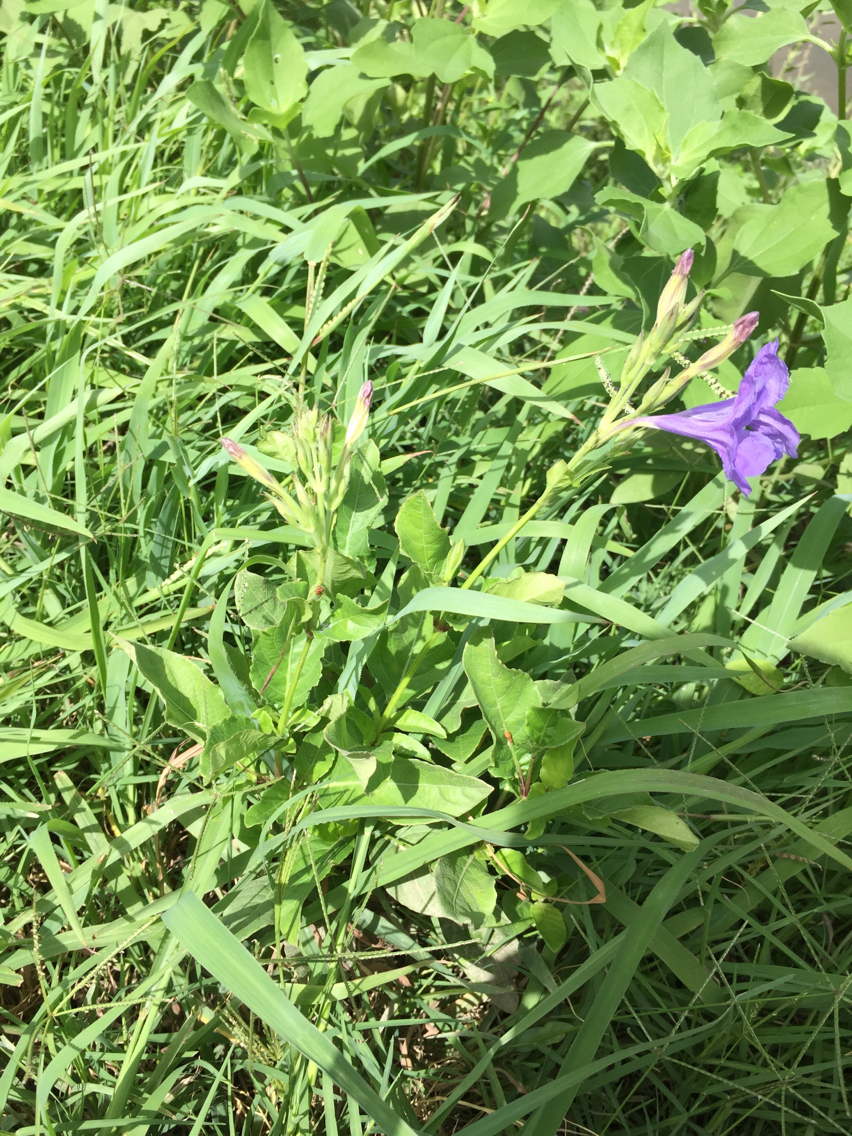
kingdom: Plantae
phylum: Tracheophyta
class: Magnoliopsida
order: Lamiales
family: Acanthaceae
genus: Ruellia
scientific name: Ruellia ciliatiflora
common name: Hairyflower wild petunia
